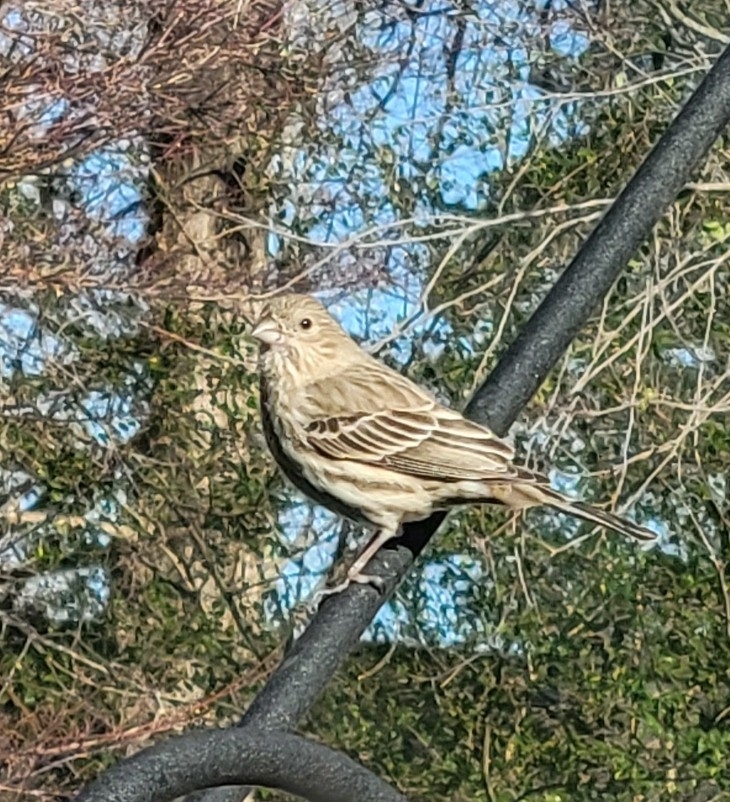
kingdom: Animalia
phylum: Chordata
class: Aves
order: Passeriformes
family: Fringillidae
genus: Haemorhous
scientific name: Haemorhous mexicanus
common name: House finch
